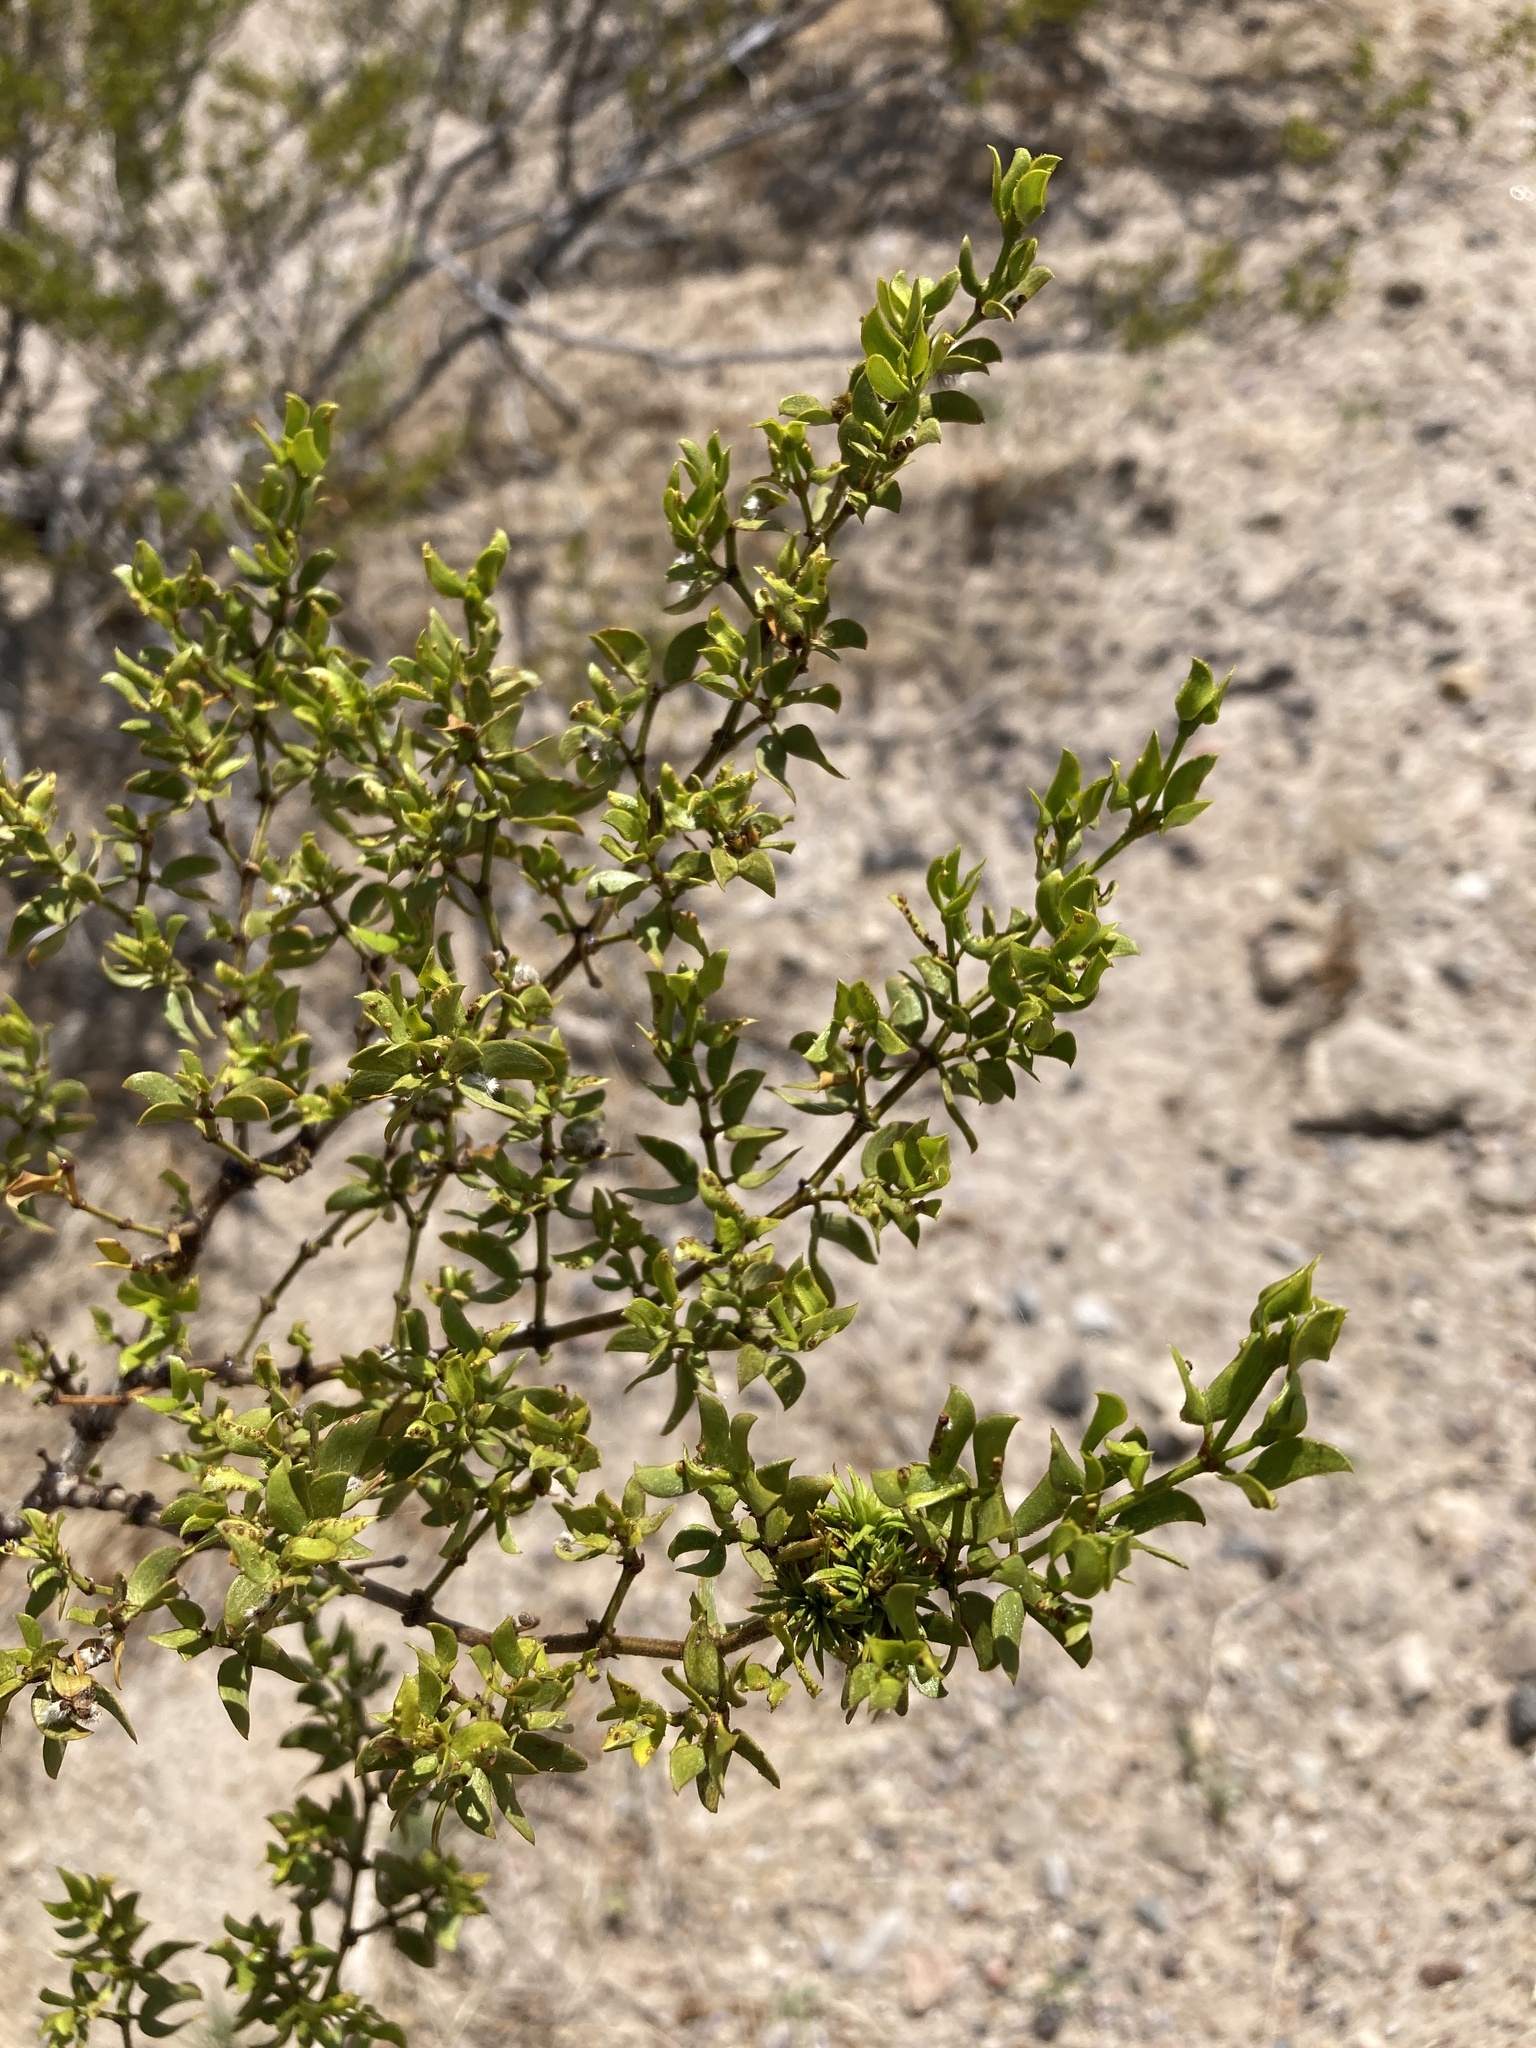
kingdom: Plantae
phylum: Tracheophyta
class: Magnoliopsida
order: Zygophyllales
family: Zygophyllaceae
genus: Larrea
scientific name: Larrea tridentata
